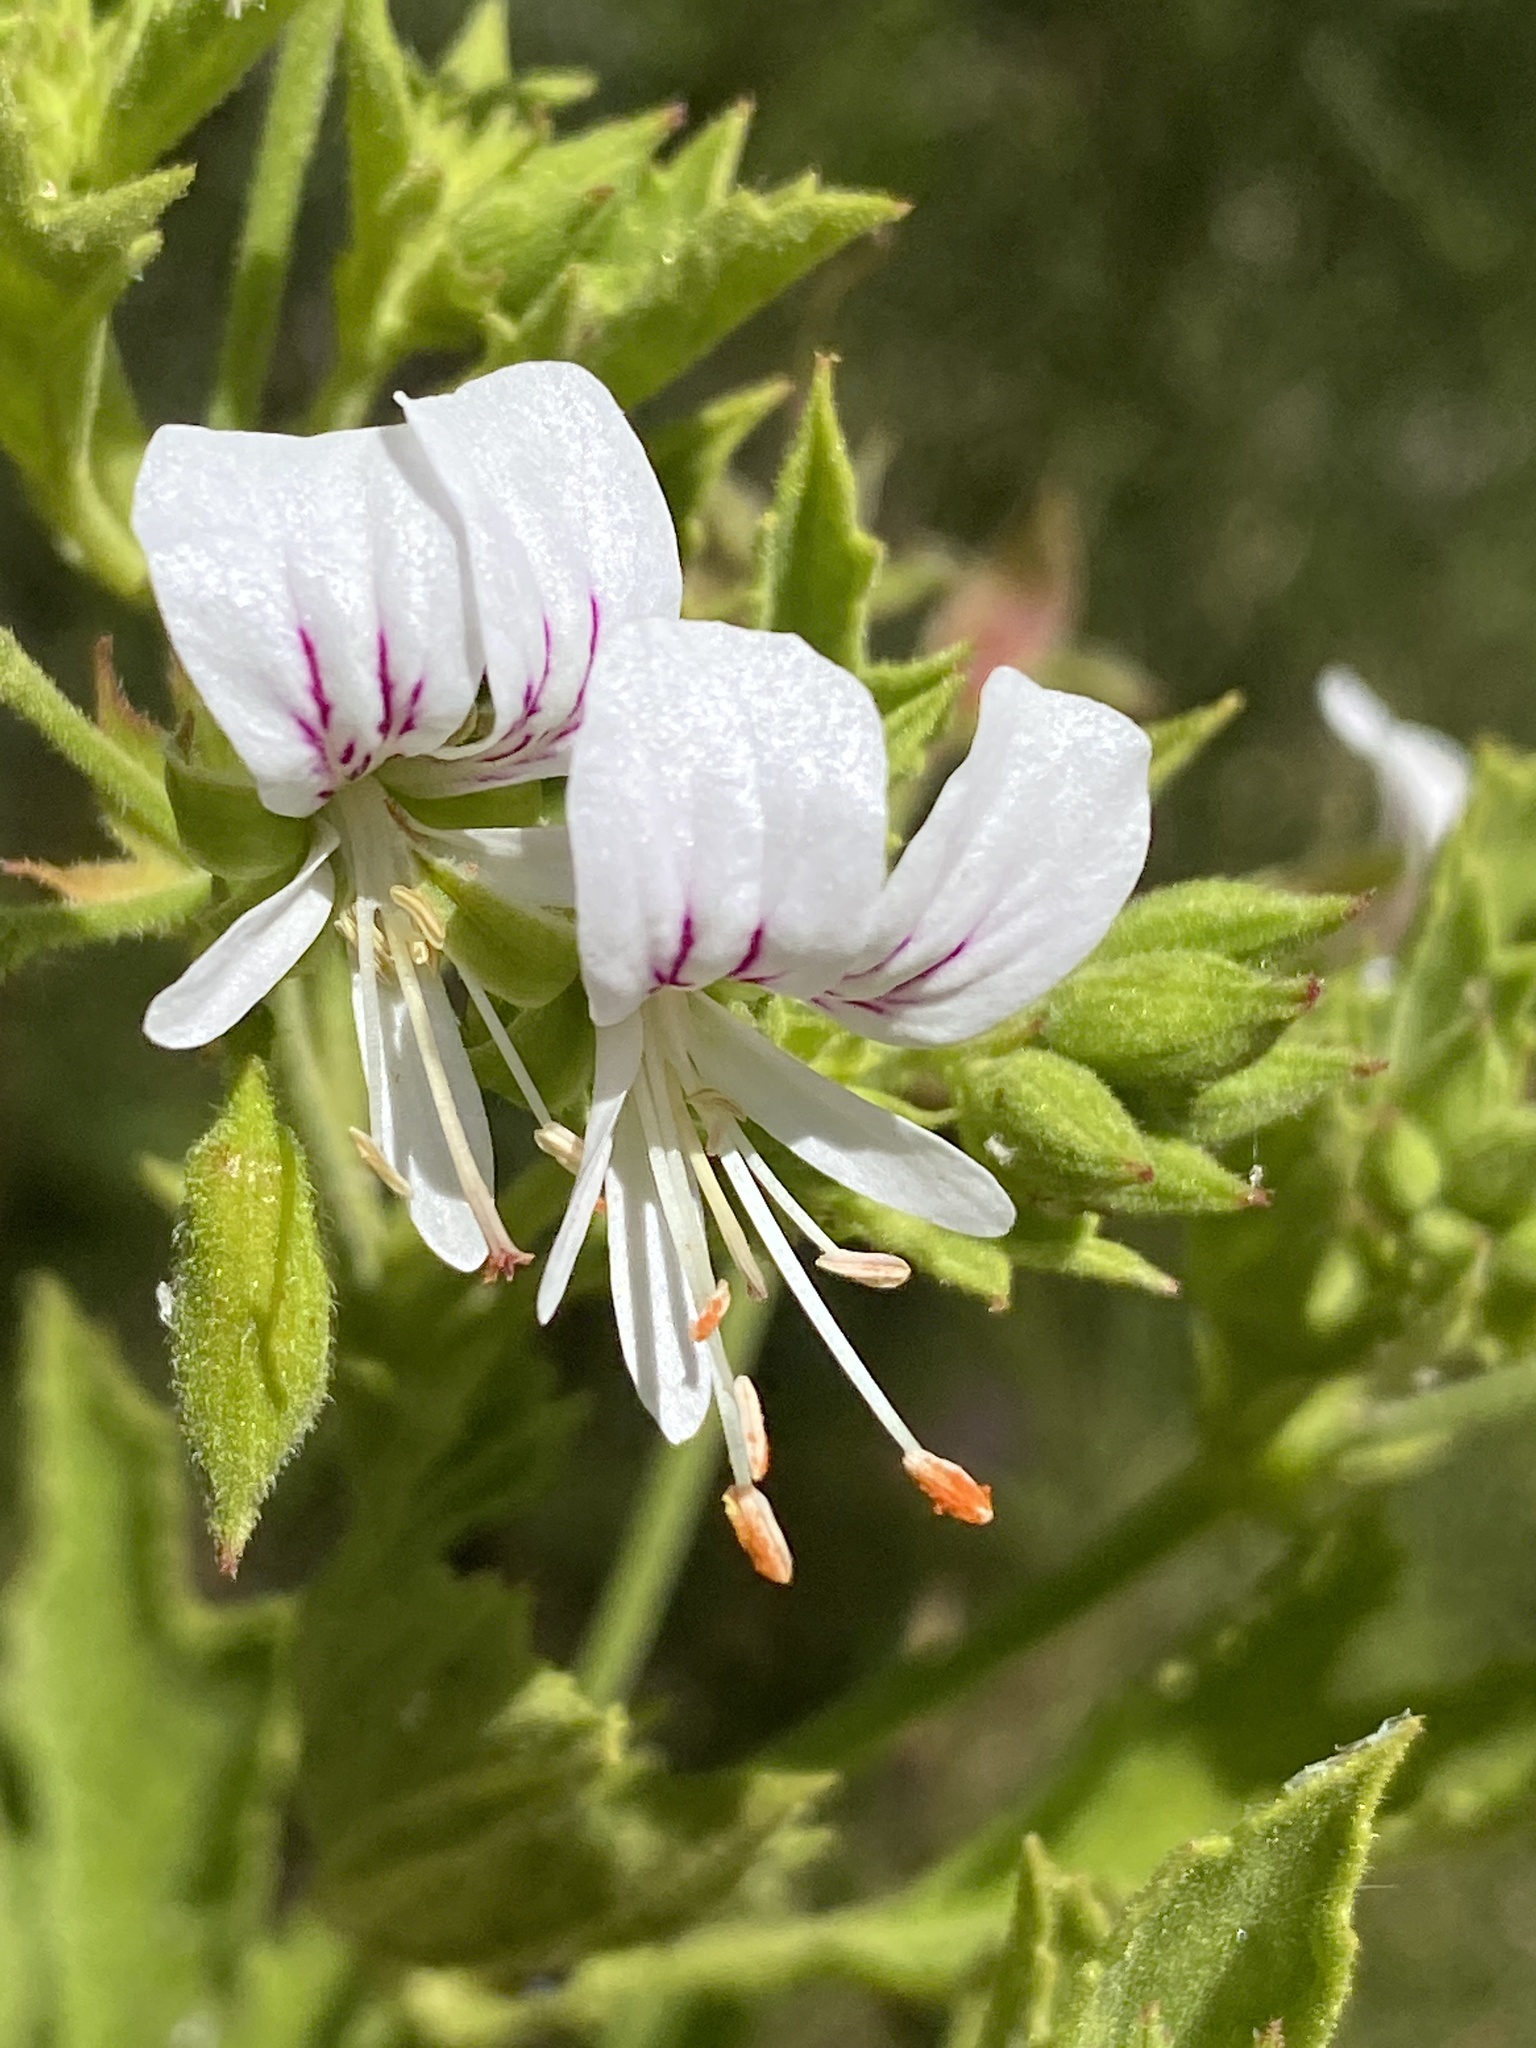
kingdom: Plantae
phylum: Tracheophyta
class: Magnoliopsida
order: Geraniales
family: Geraniaceae
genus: Pelargonium
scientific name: Pelargonium ribifolium
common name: Currant-leaf pelargonium
